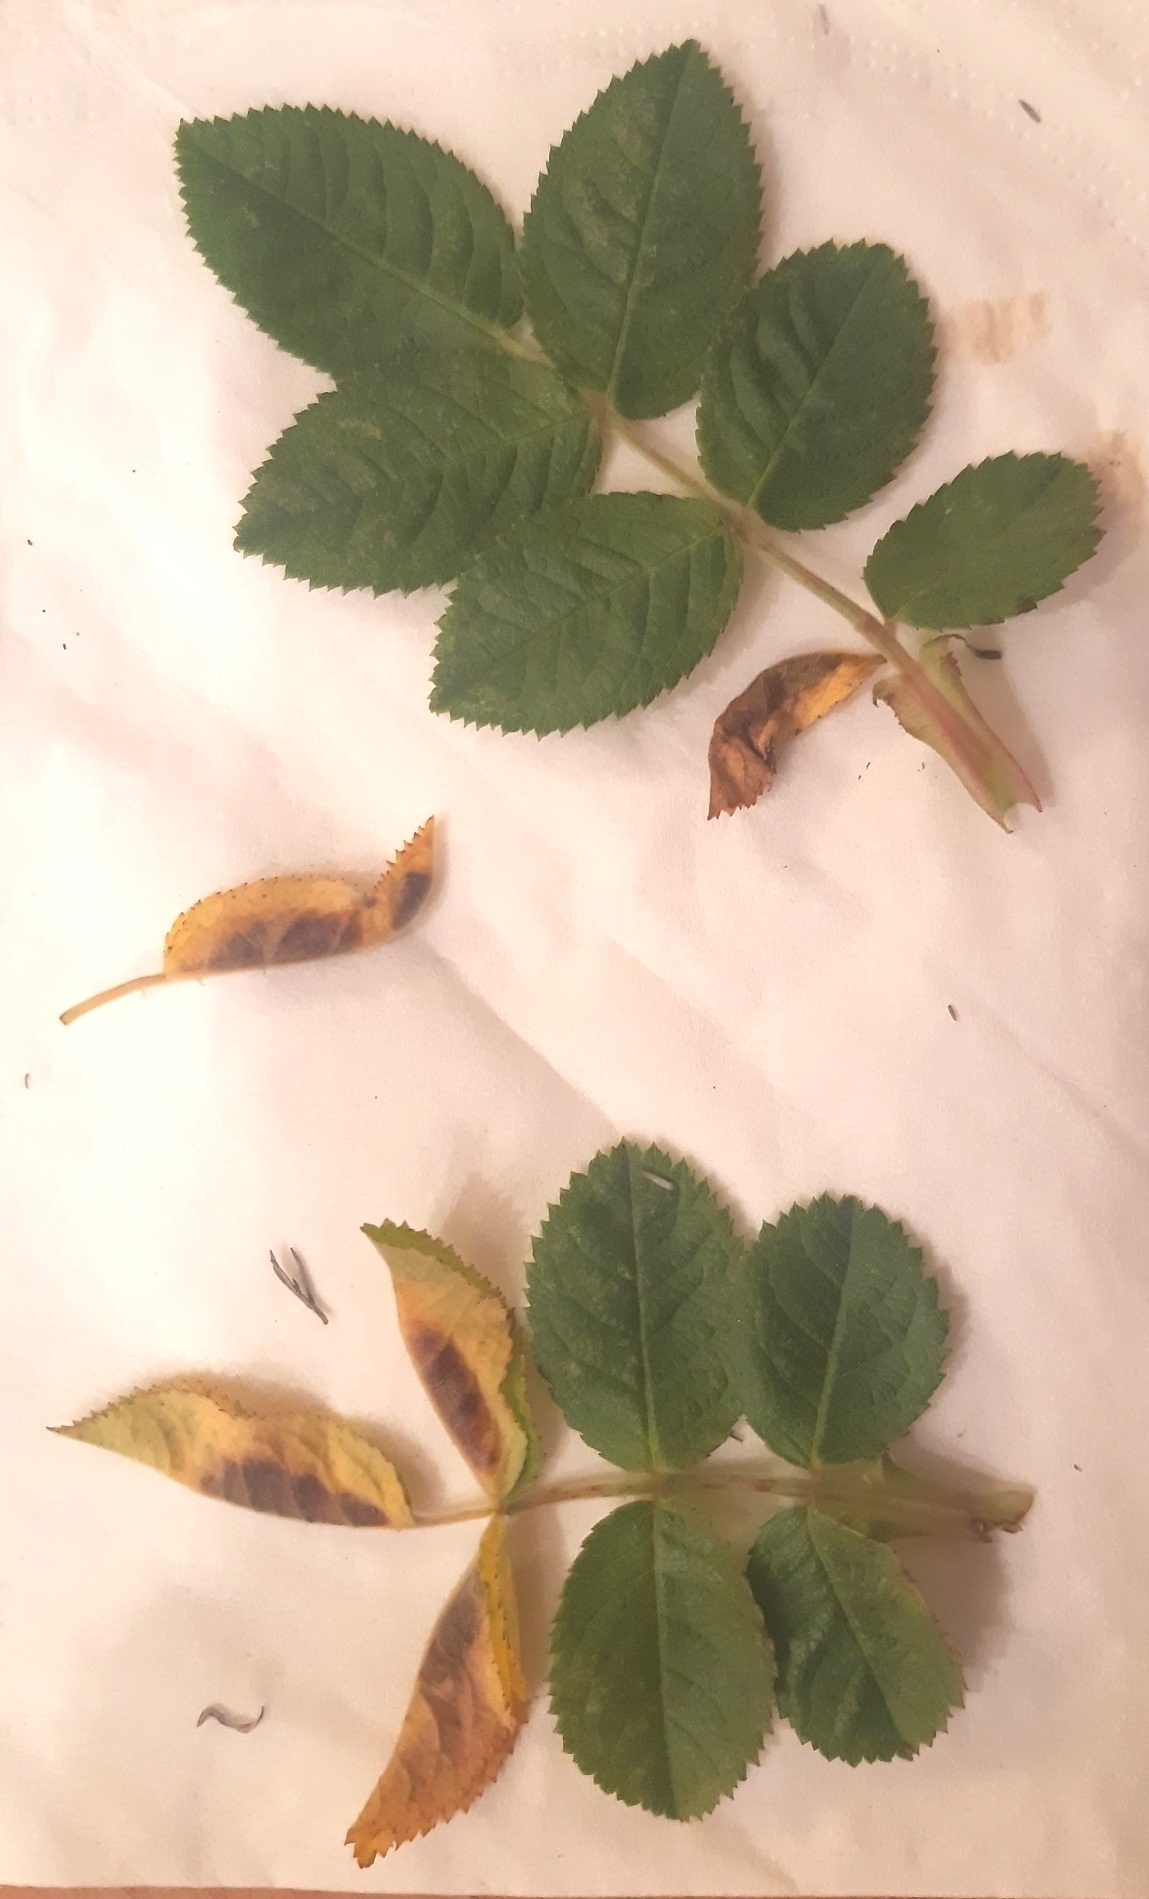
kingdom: Animalia
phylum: Arthropoda
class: Insecta
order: Diptera
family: Cecidomyiidae
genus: Wachtliella
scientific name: Wachtliella rosae
